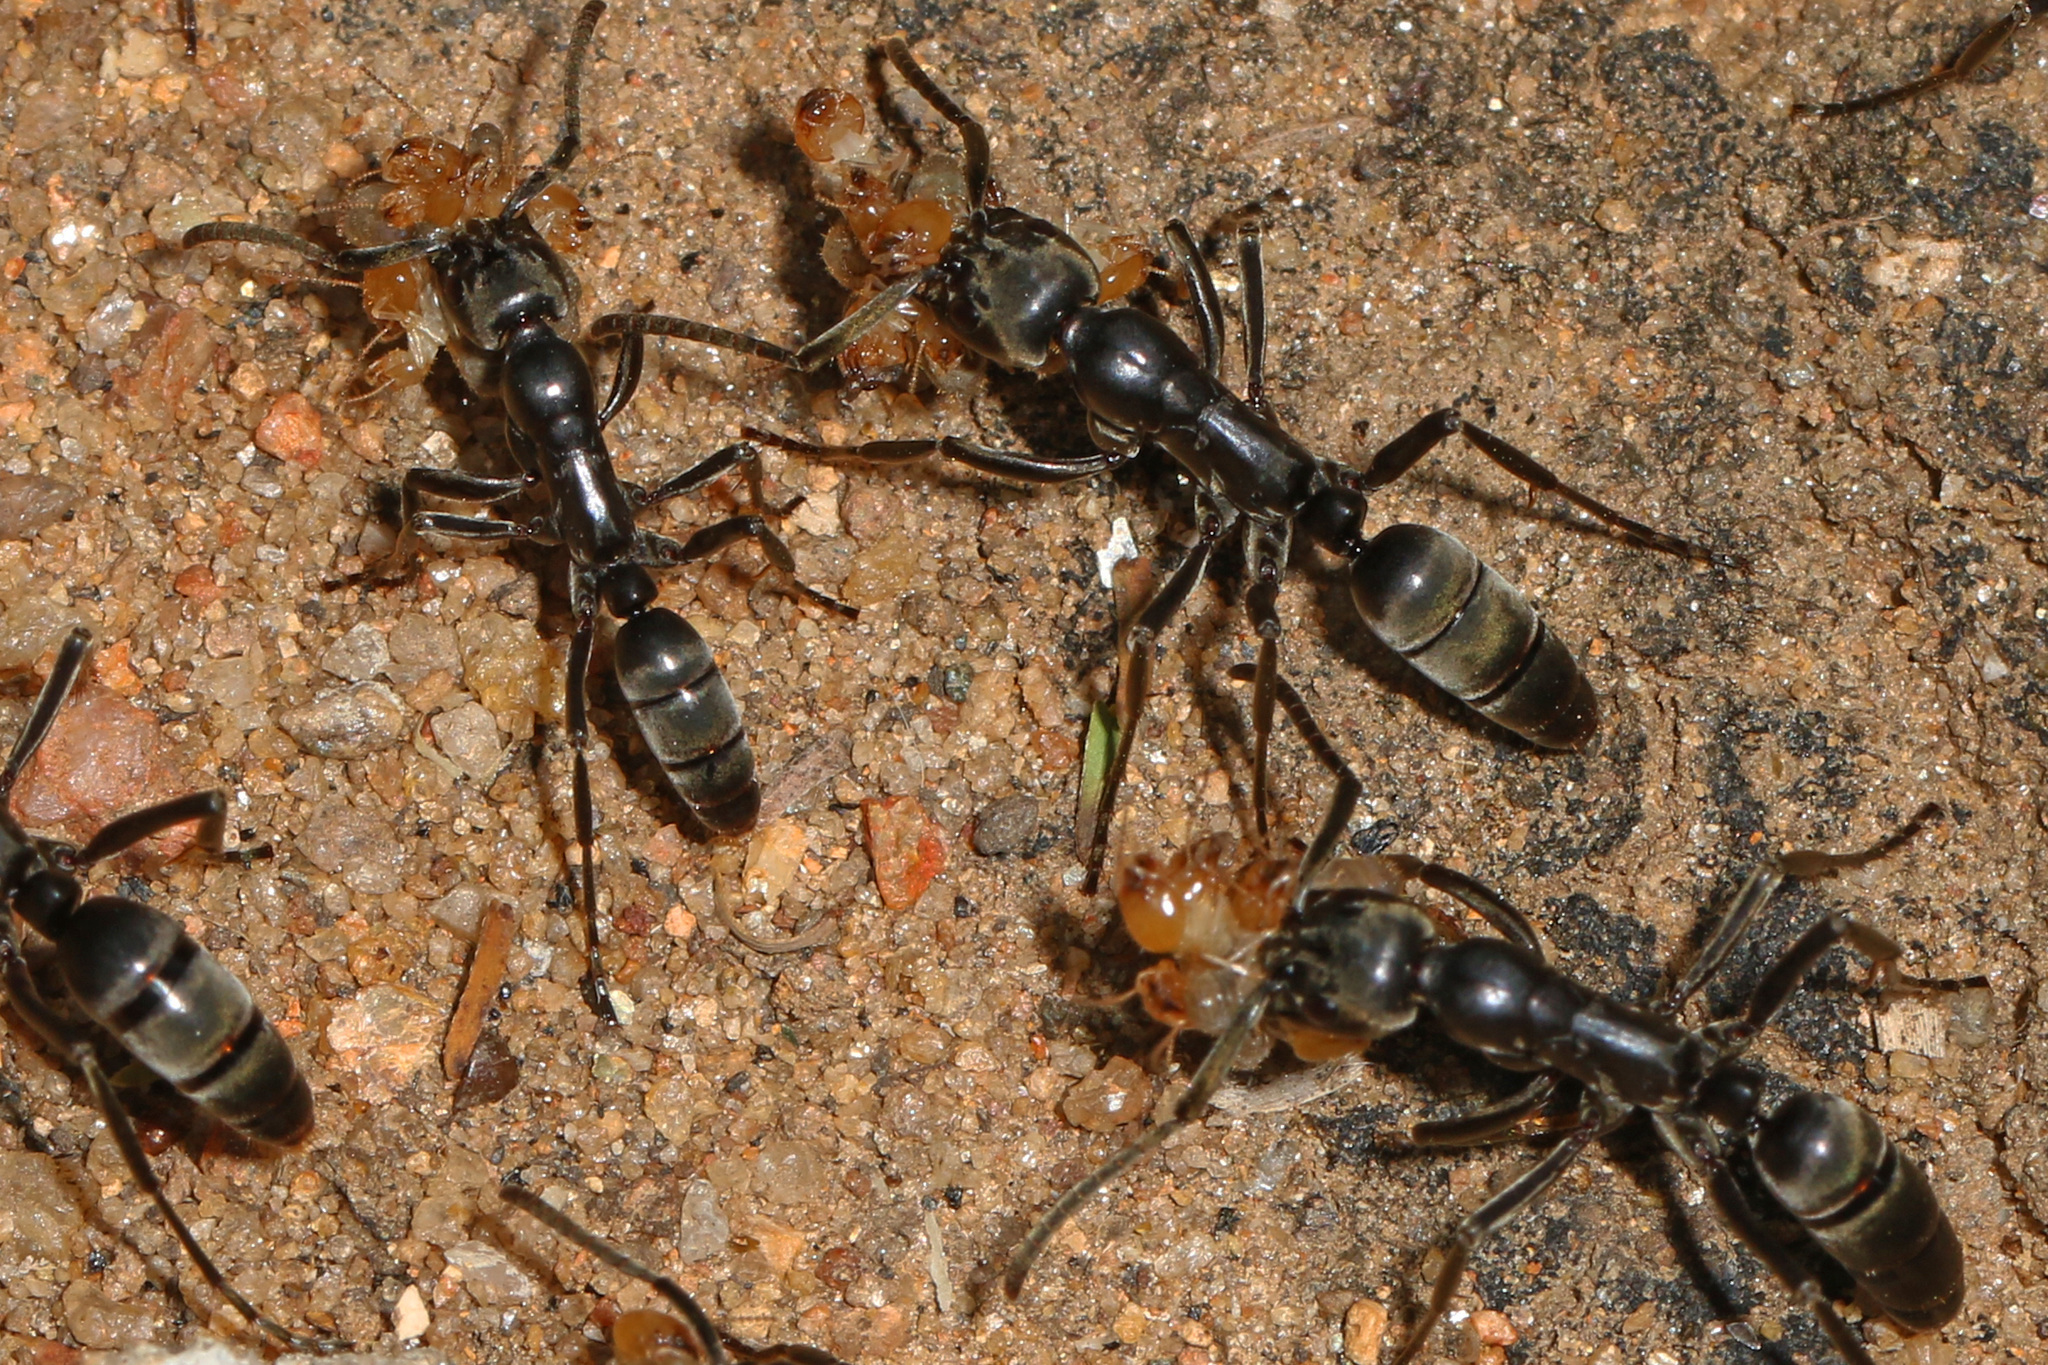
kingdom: Animalia
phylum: Arthropoda
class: Insecta
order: Hymenoptera
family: Formicidae
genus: Megaponera
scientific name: Megaponera analis
